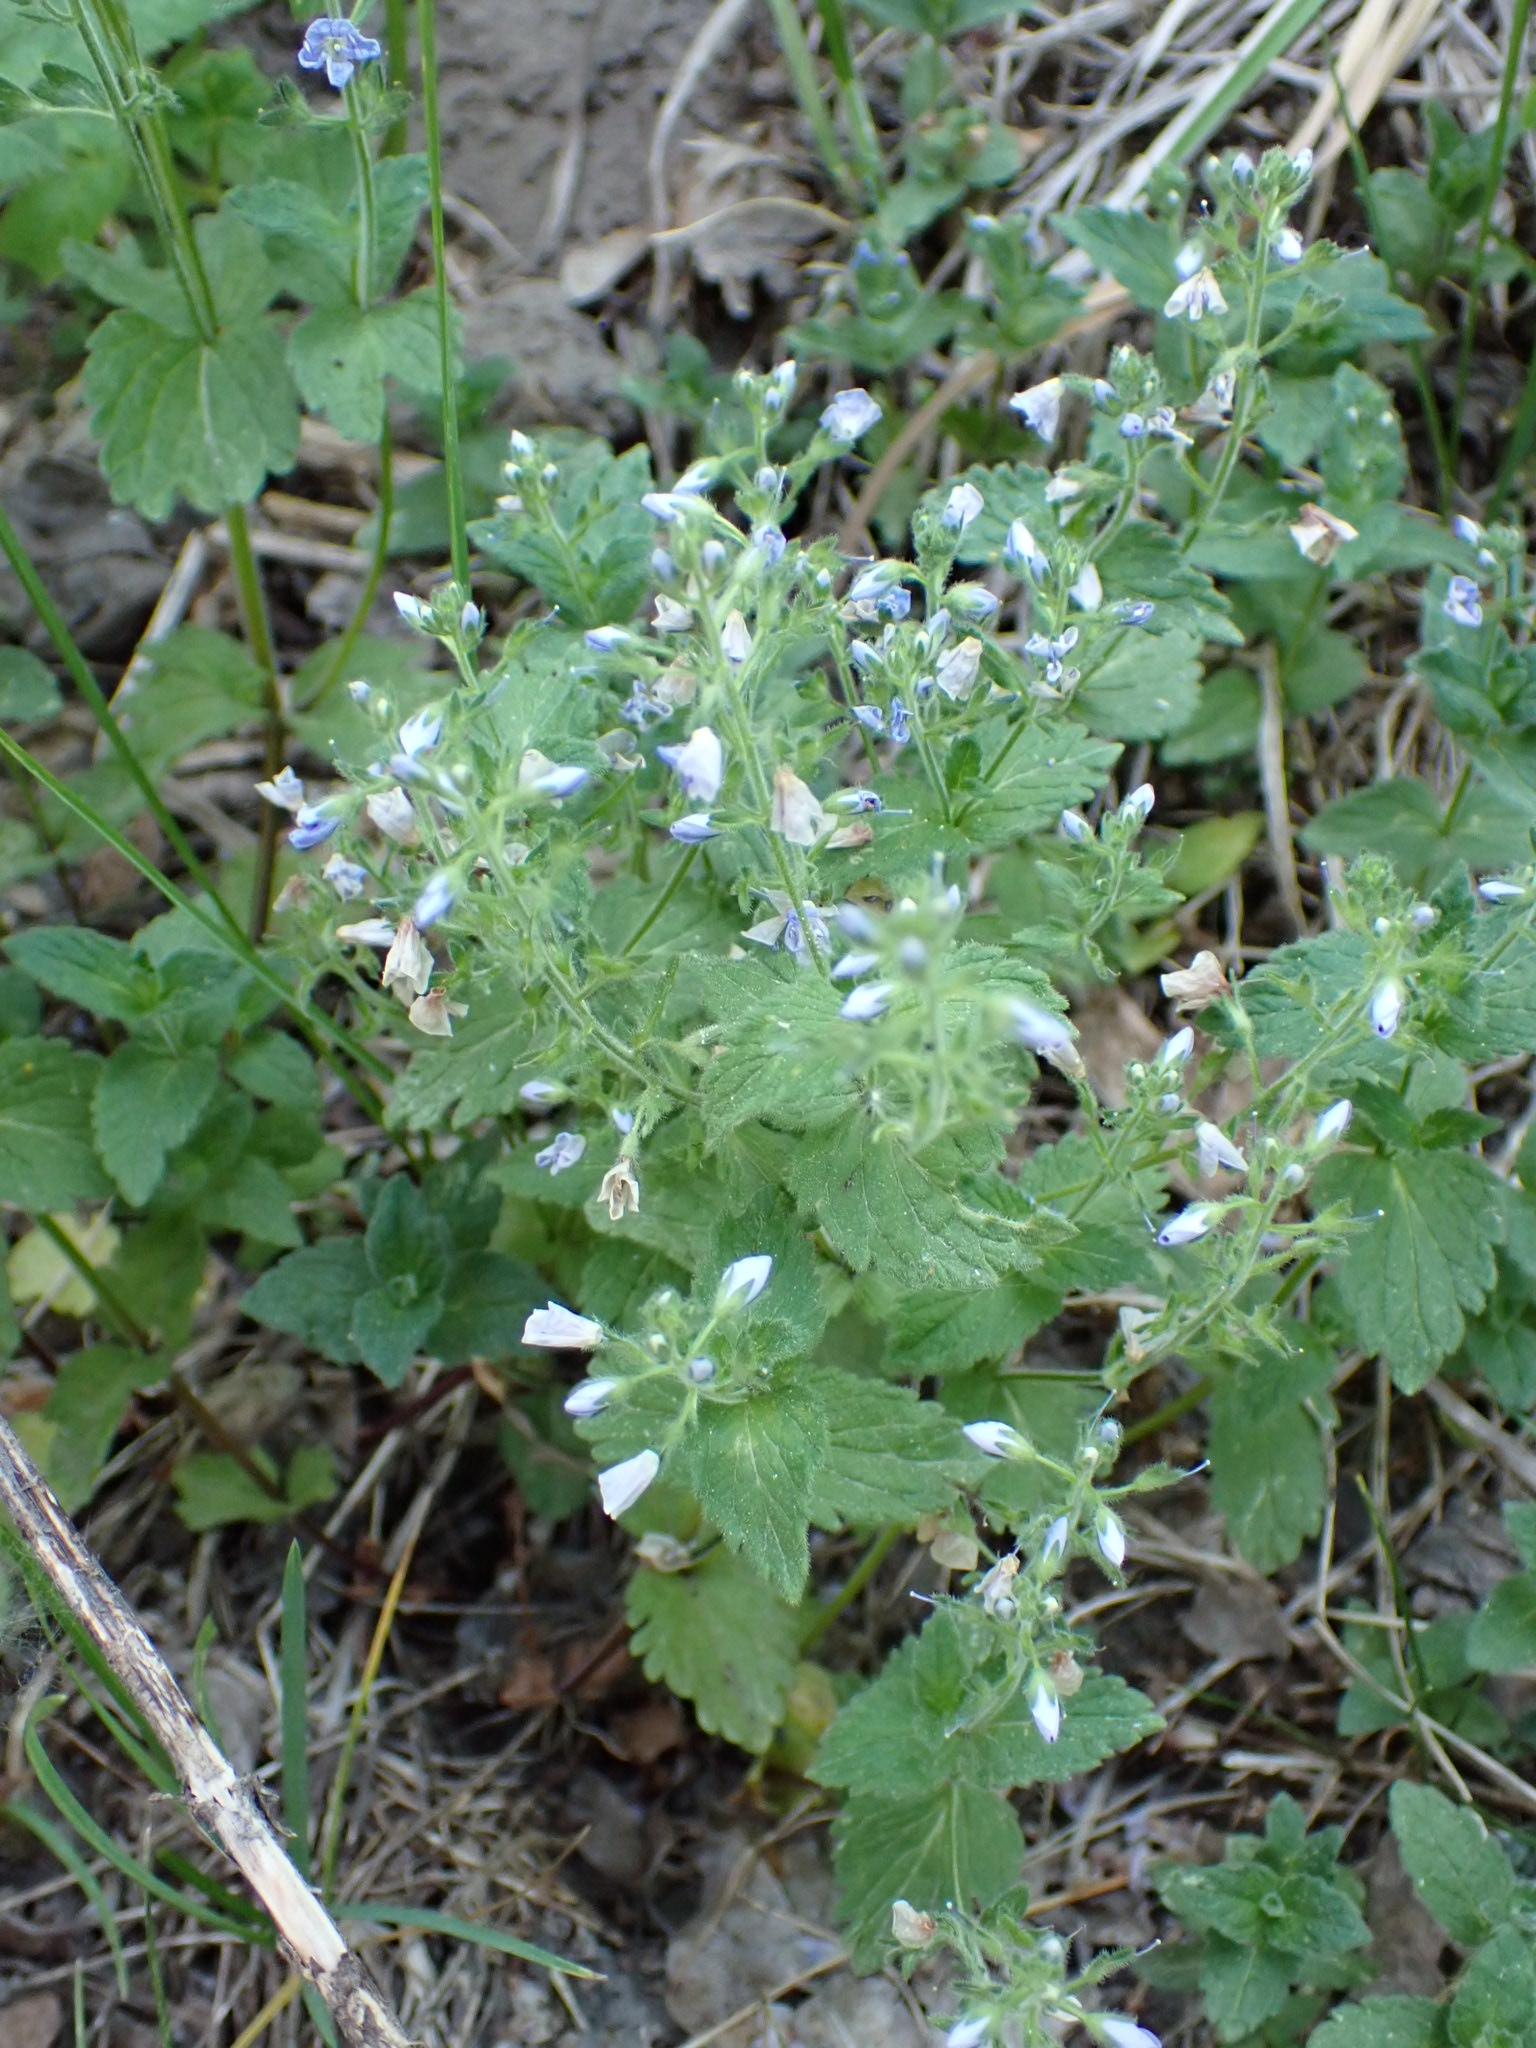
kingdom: Plantae
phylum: Tracheophyta
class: Magnoliopsida
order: Lamiales
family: Plantaginaceae
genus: Veronica
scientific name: Veronica chamaedrys
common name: Germander speedwell
